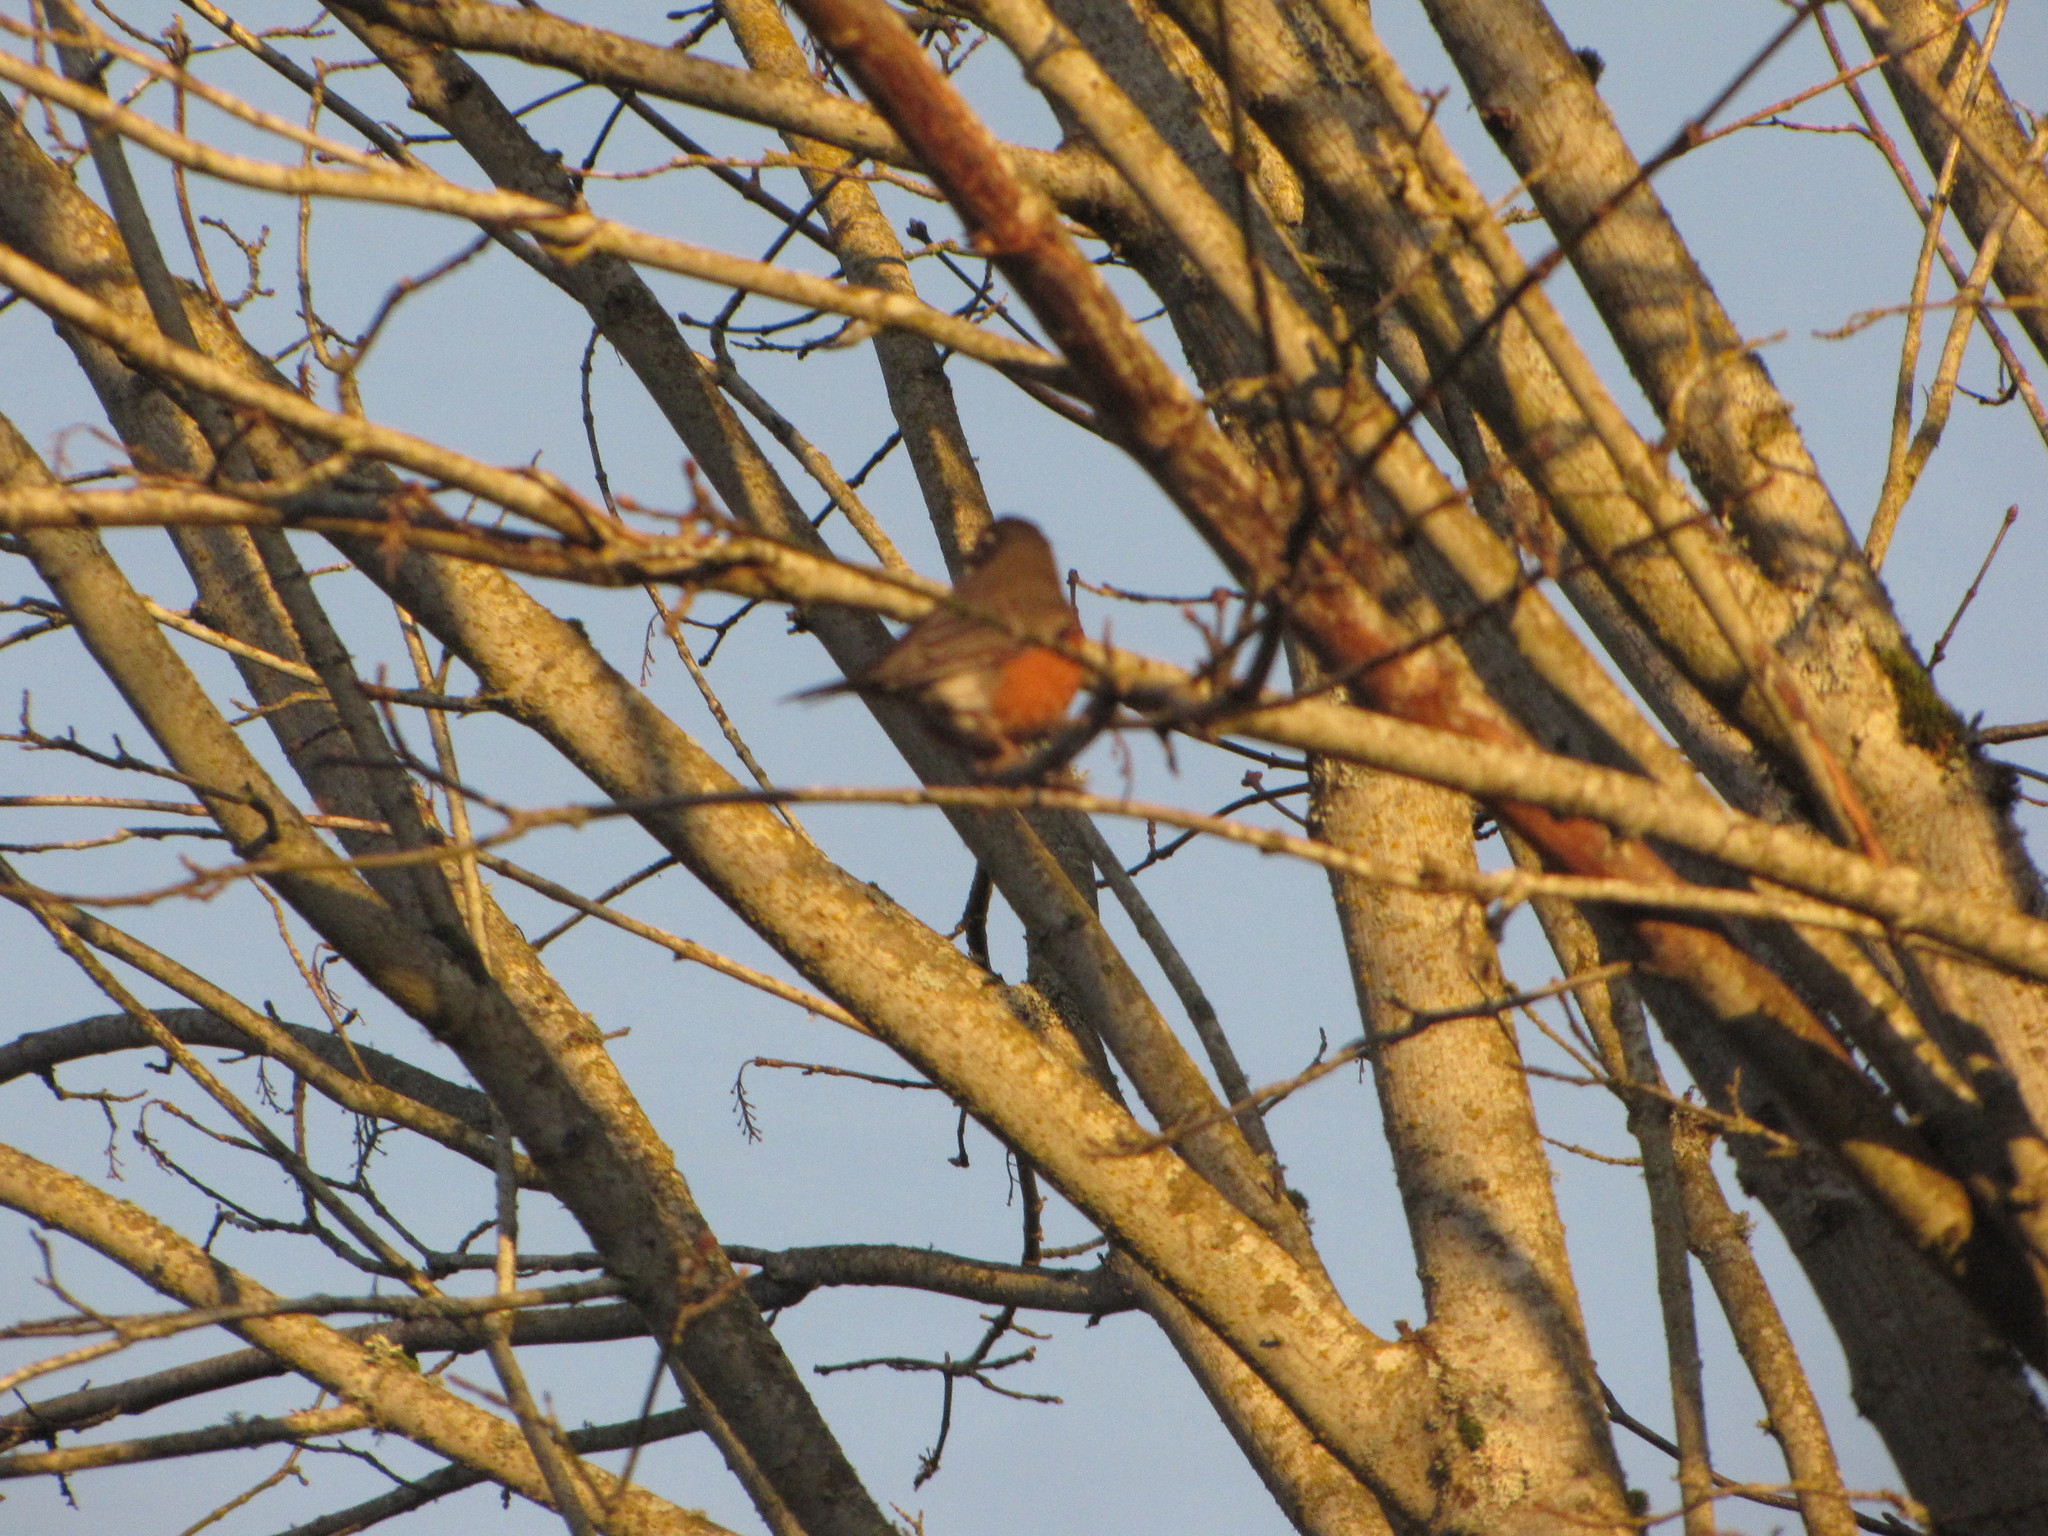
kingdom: Animalia
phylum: Chordata
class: Aves
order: Passeriformes
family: Turdidae
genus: Turdus
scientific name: Turdus migratorius
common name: American robin
